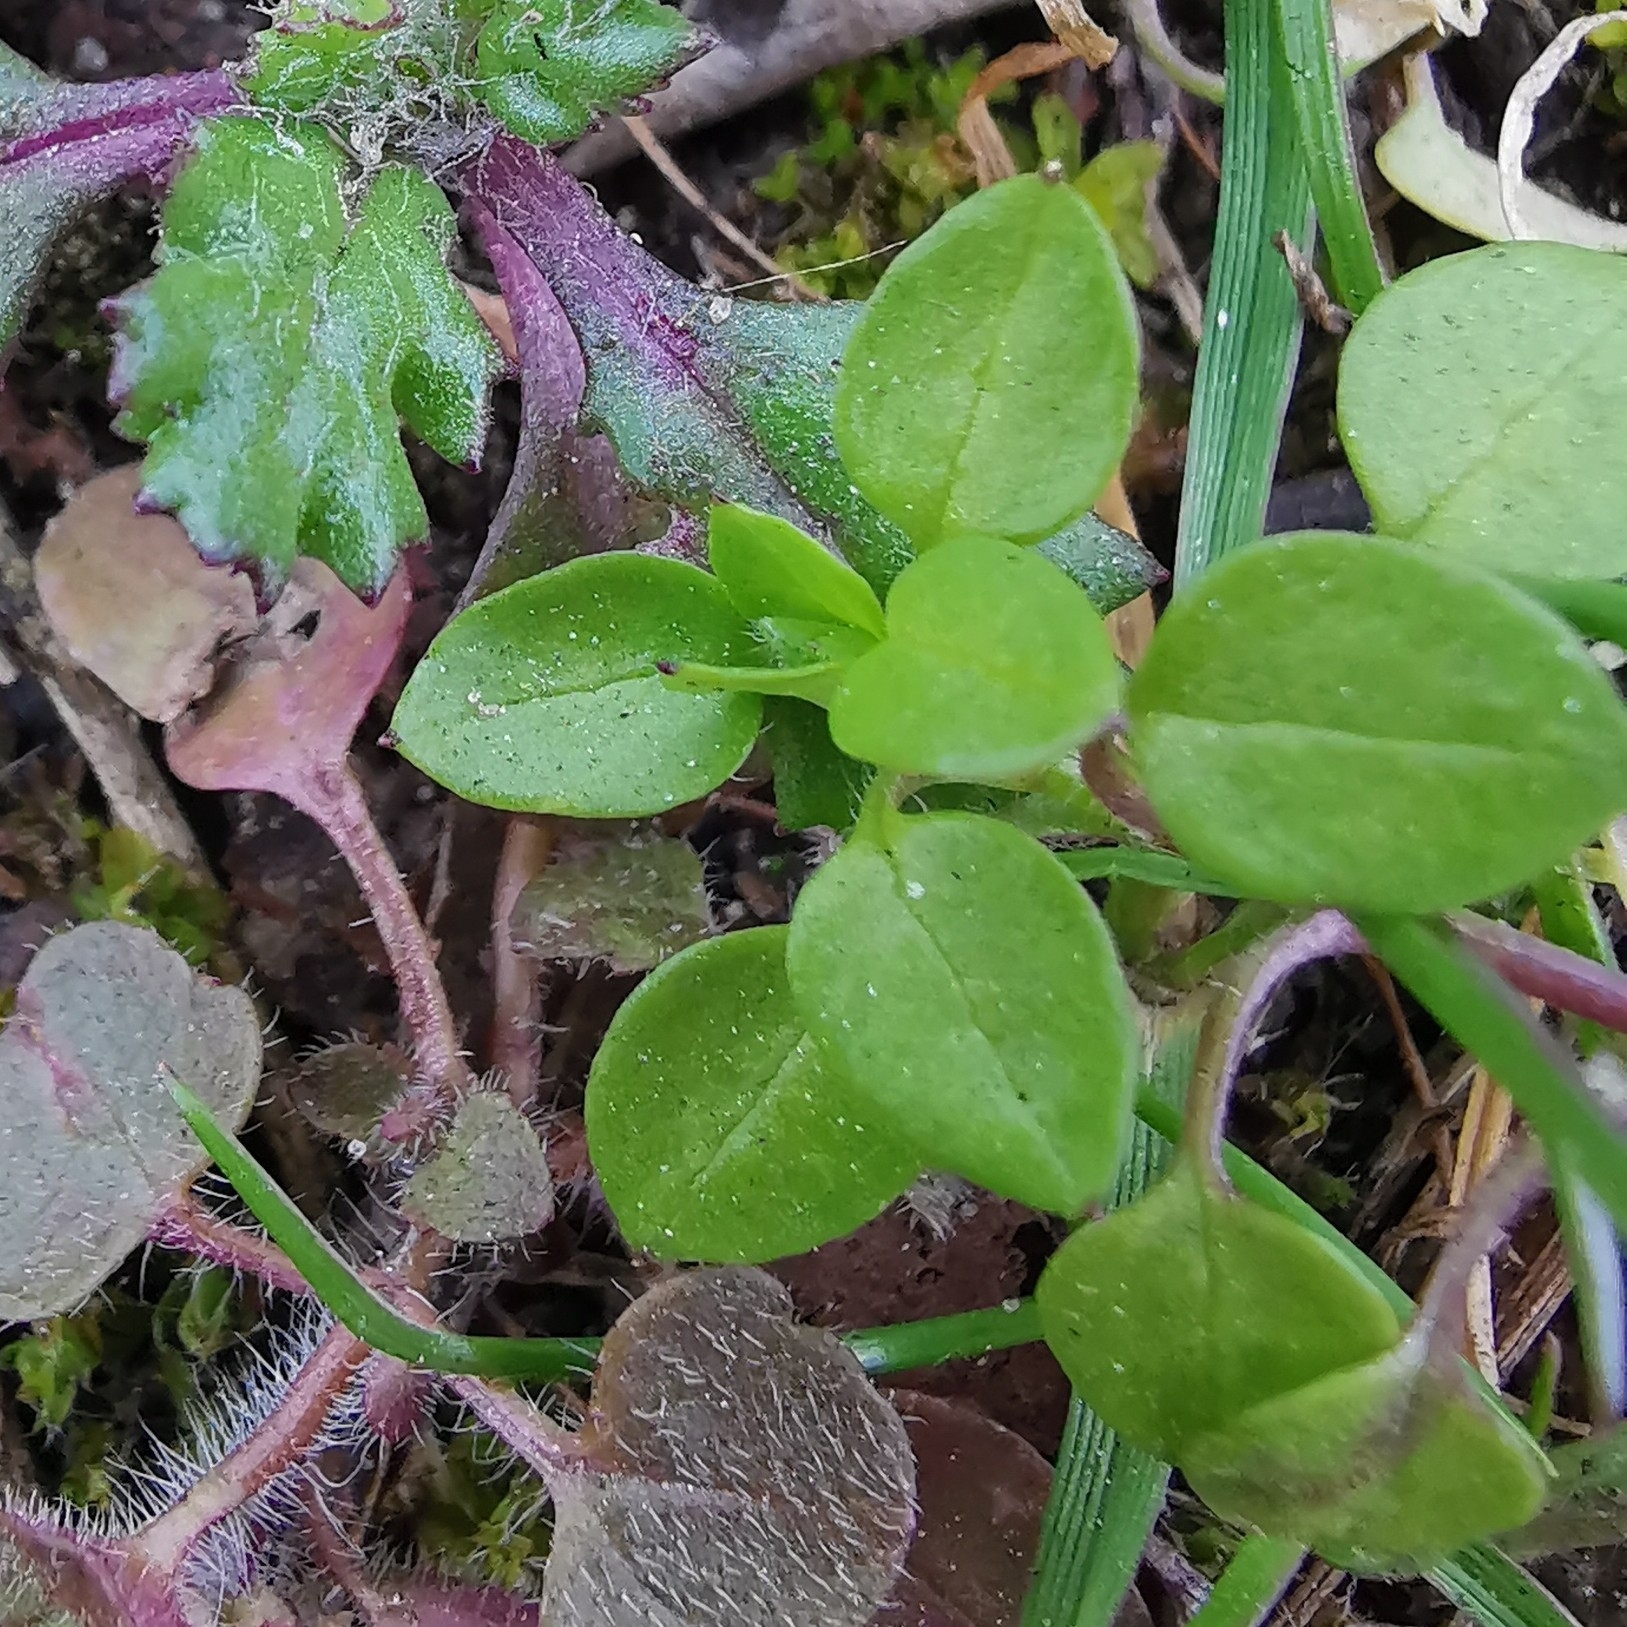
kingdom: Plantae
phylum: Tracheophyta
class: Magnoliopsida
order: Caryophyllales
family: Caryophyllaceae
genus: Stellaria
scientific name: Stellaria media
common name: Common chickweed
